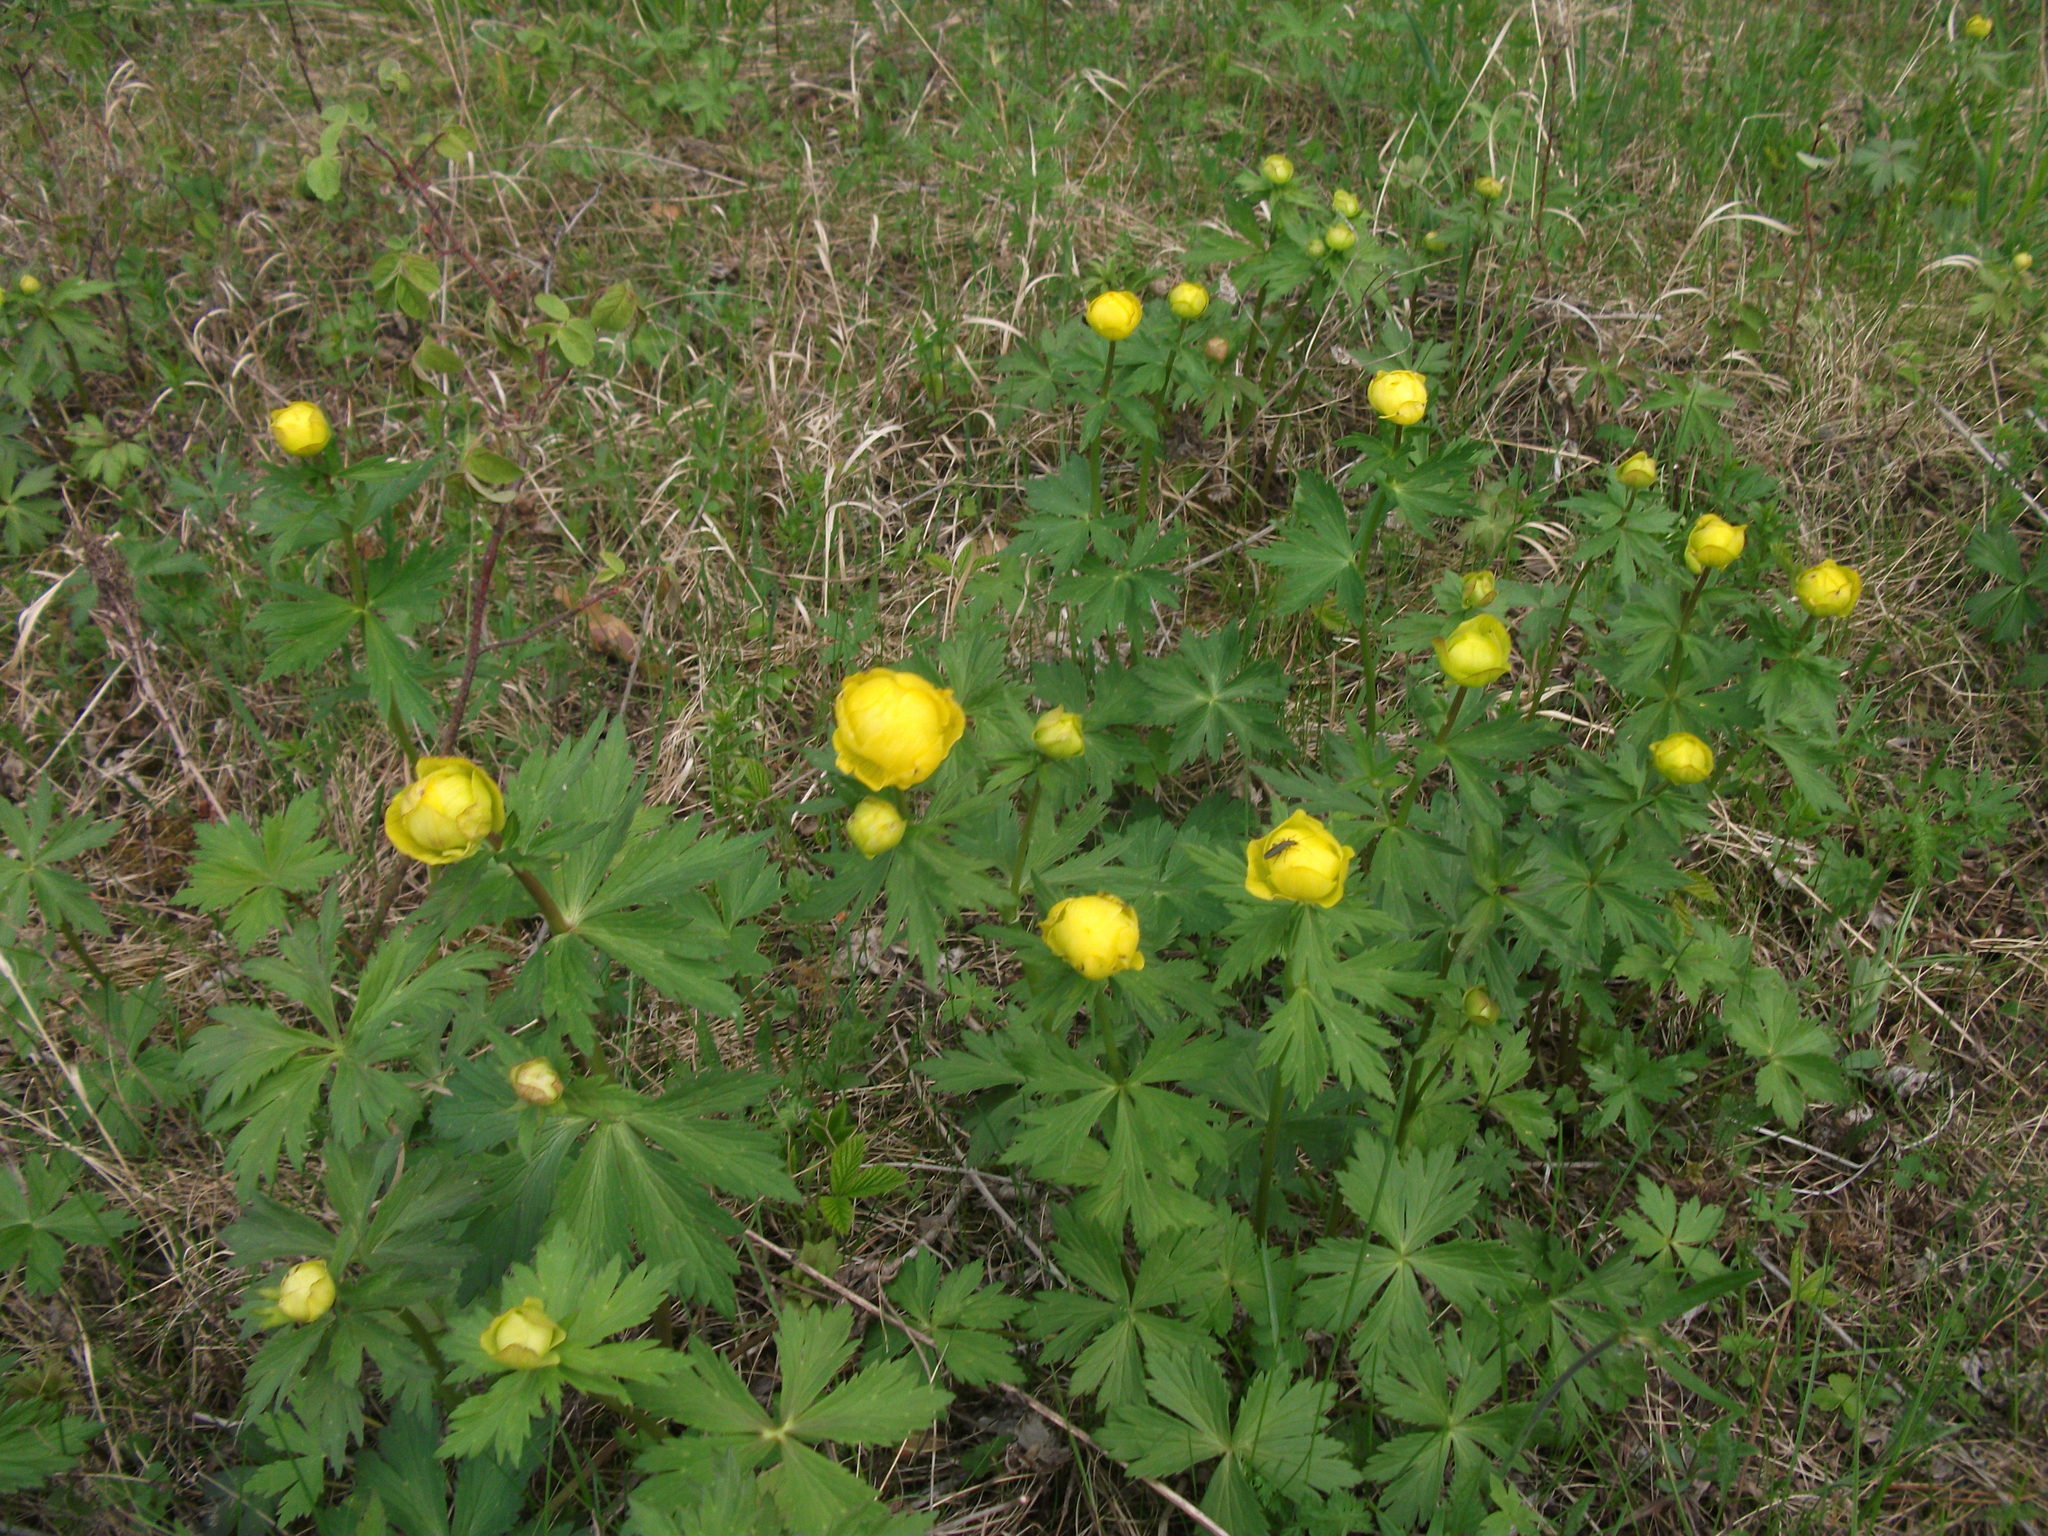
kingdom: Plantae
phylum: Tracheophyta
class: Magnoliopsida
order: Ranunculales
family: Ranunculaceae
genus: Trollius
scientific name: Trollius europaeus
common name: European globeflower
